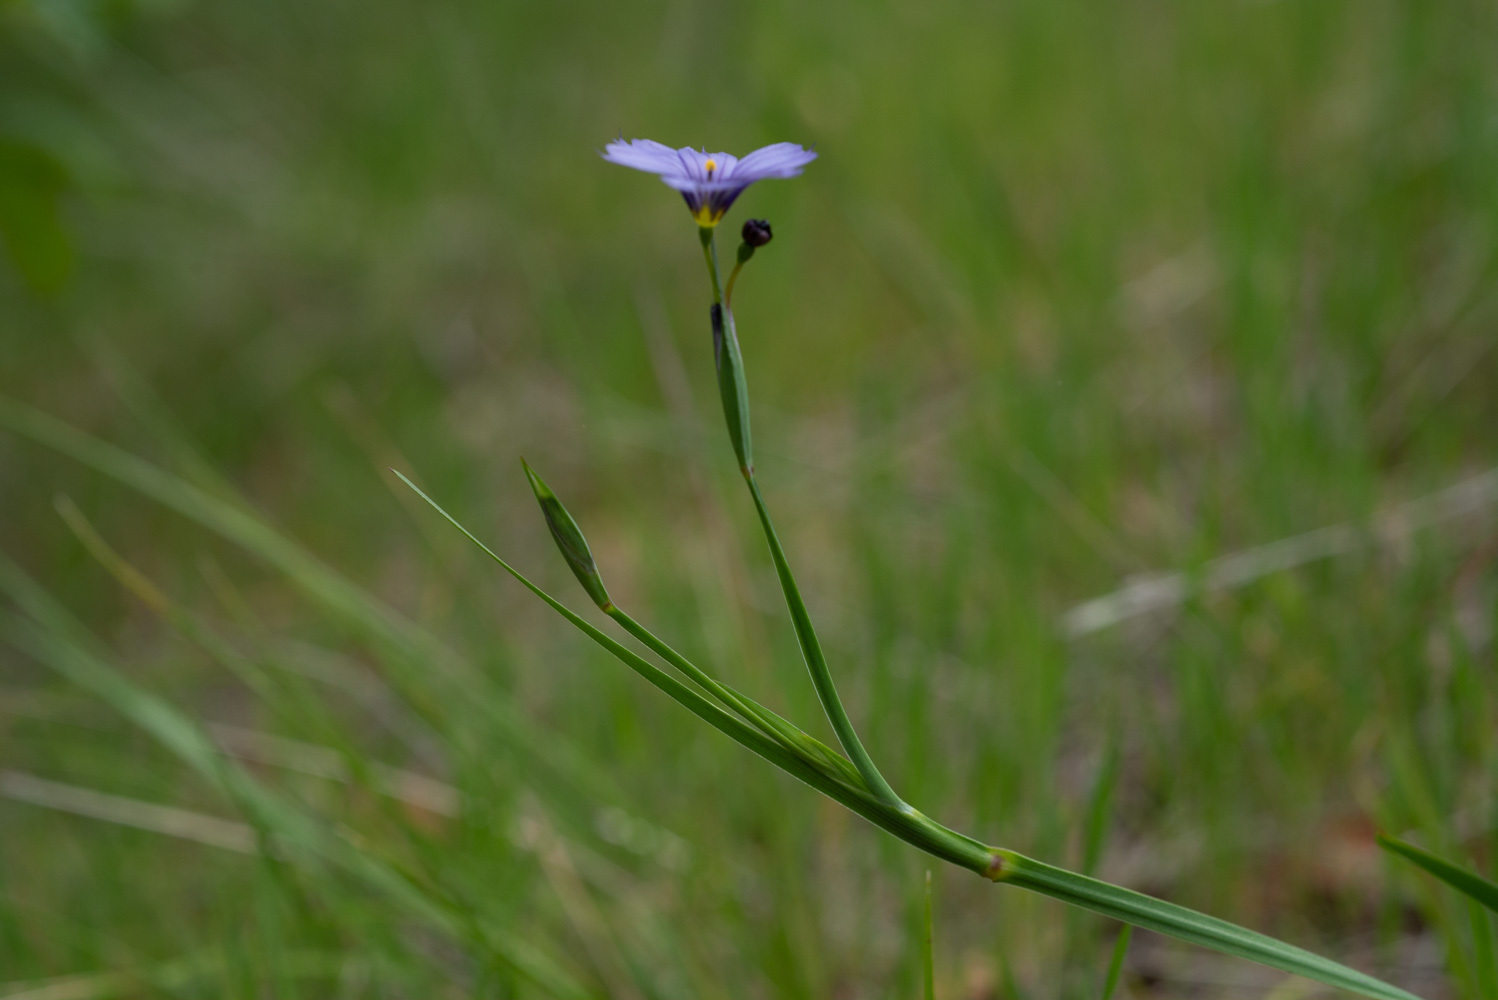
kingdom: Plantae
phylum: Tracheophyta
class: Liliopsida
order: Asparagales
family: Iridaceae
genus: Sisyrinchium
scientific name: Sisyrinchium bellum
